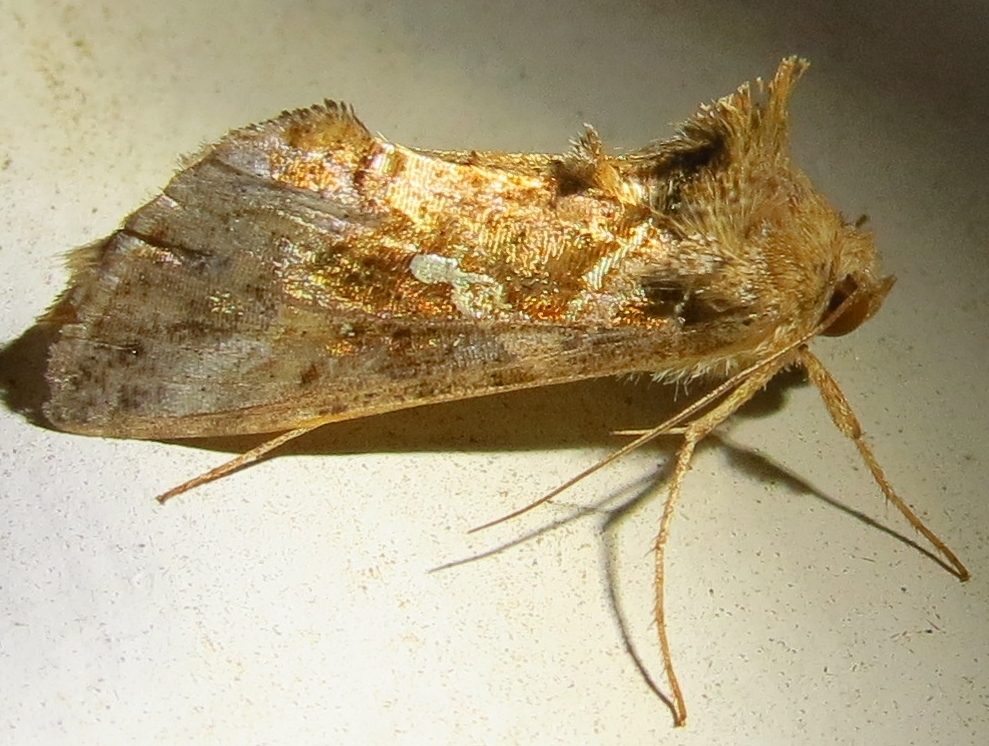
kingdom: Animalia
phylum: Arthropoda
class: Insecta
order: Lepidoptera
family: Noctuidae
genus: Chrysodeixis
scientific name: Chrysodeixis includens
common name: Cutworm moth
